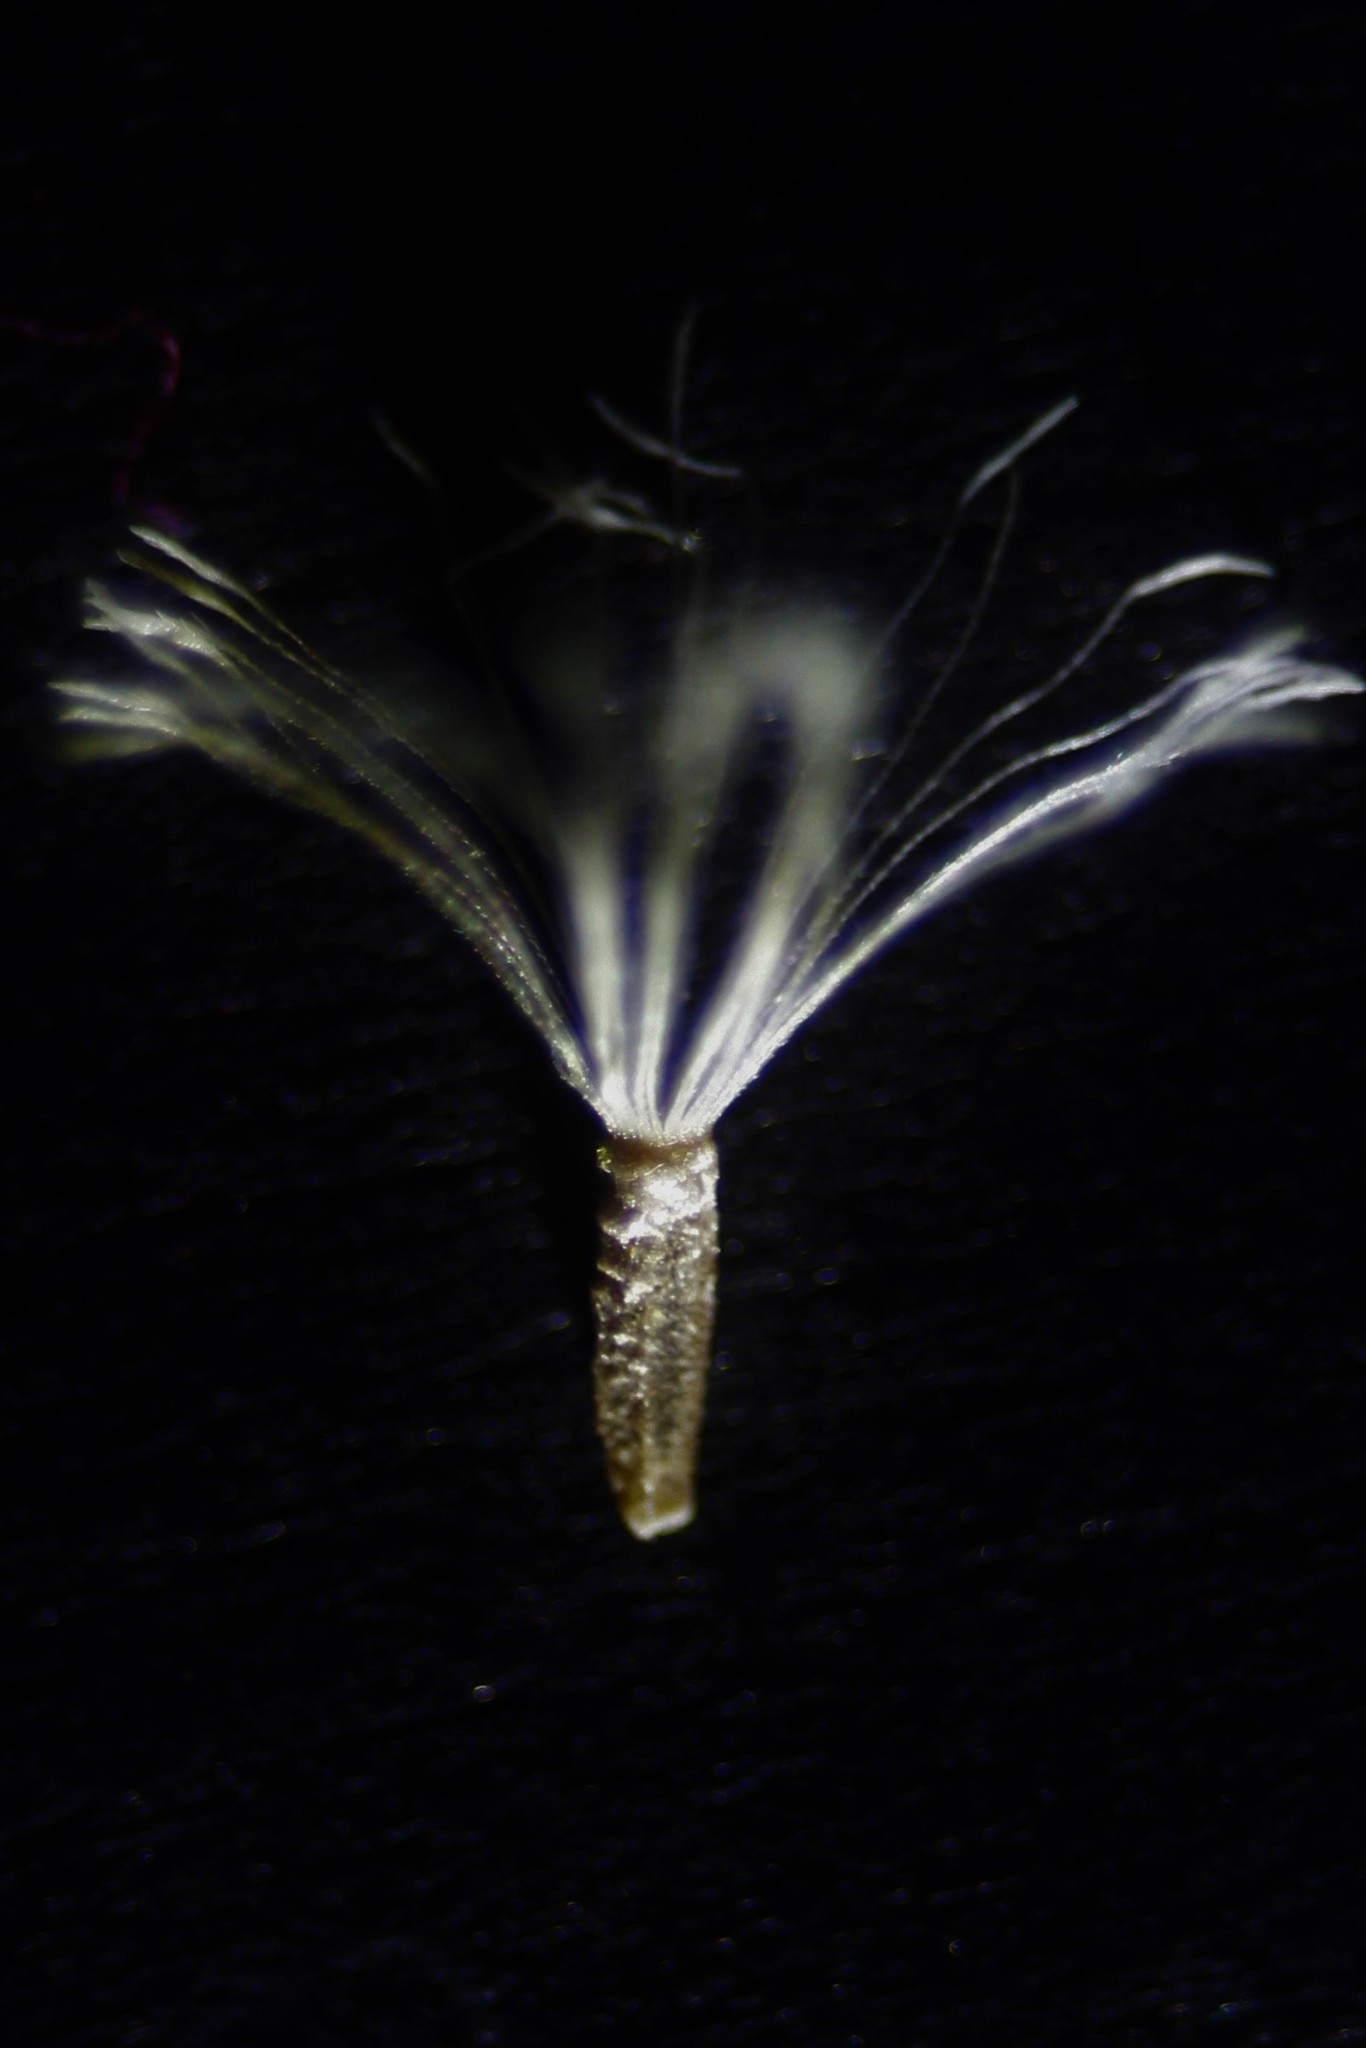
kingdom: Plantae
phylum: Tracheophyta
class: Magnoliopsida
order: Asterales
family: Asteraceae
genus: Ozothamnus
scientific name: Ozothamnus leptophyllus
